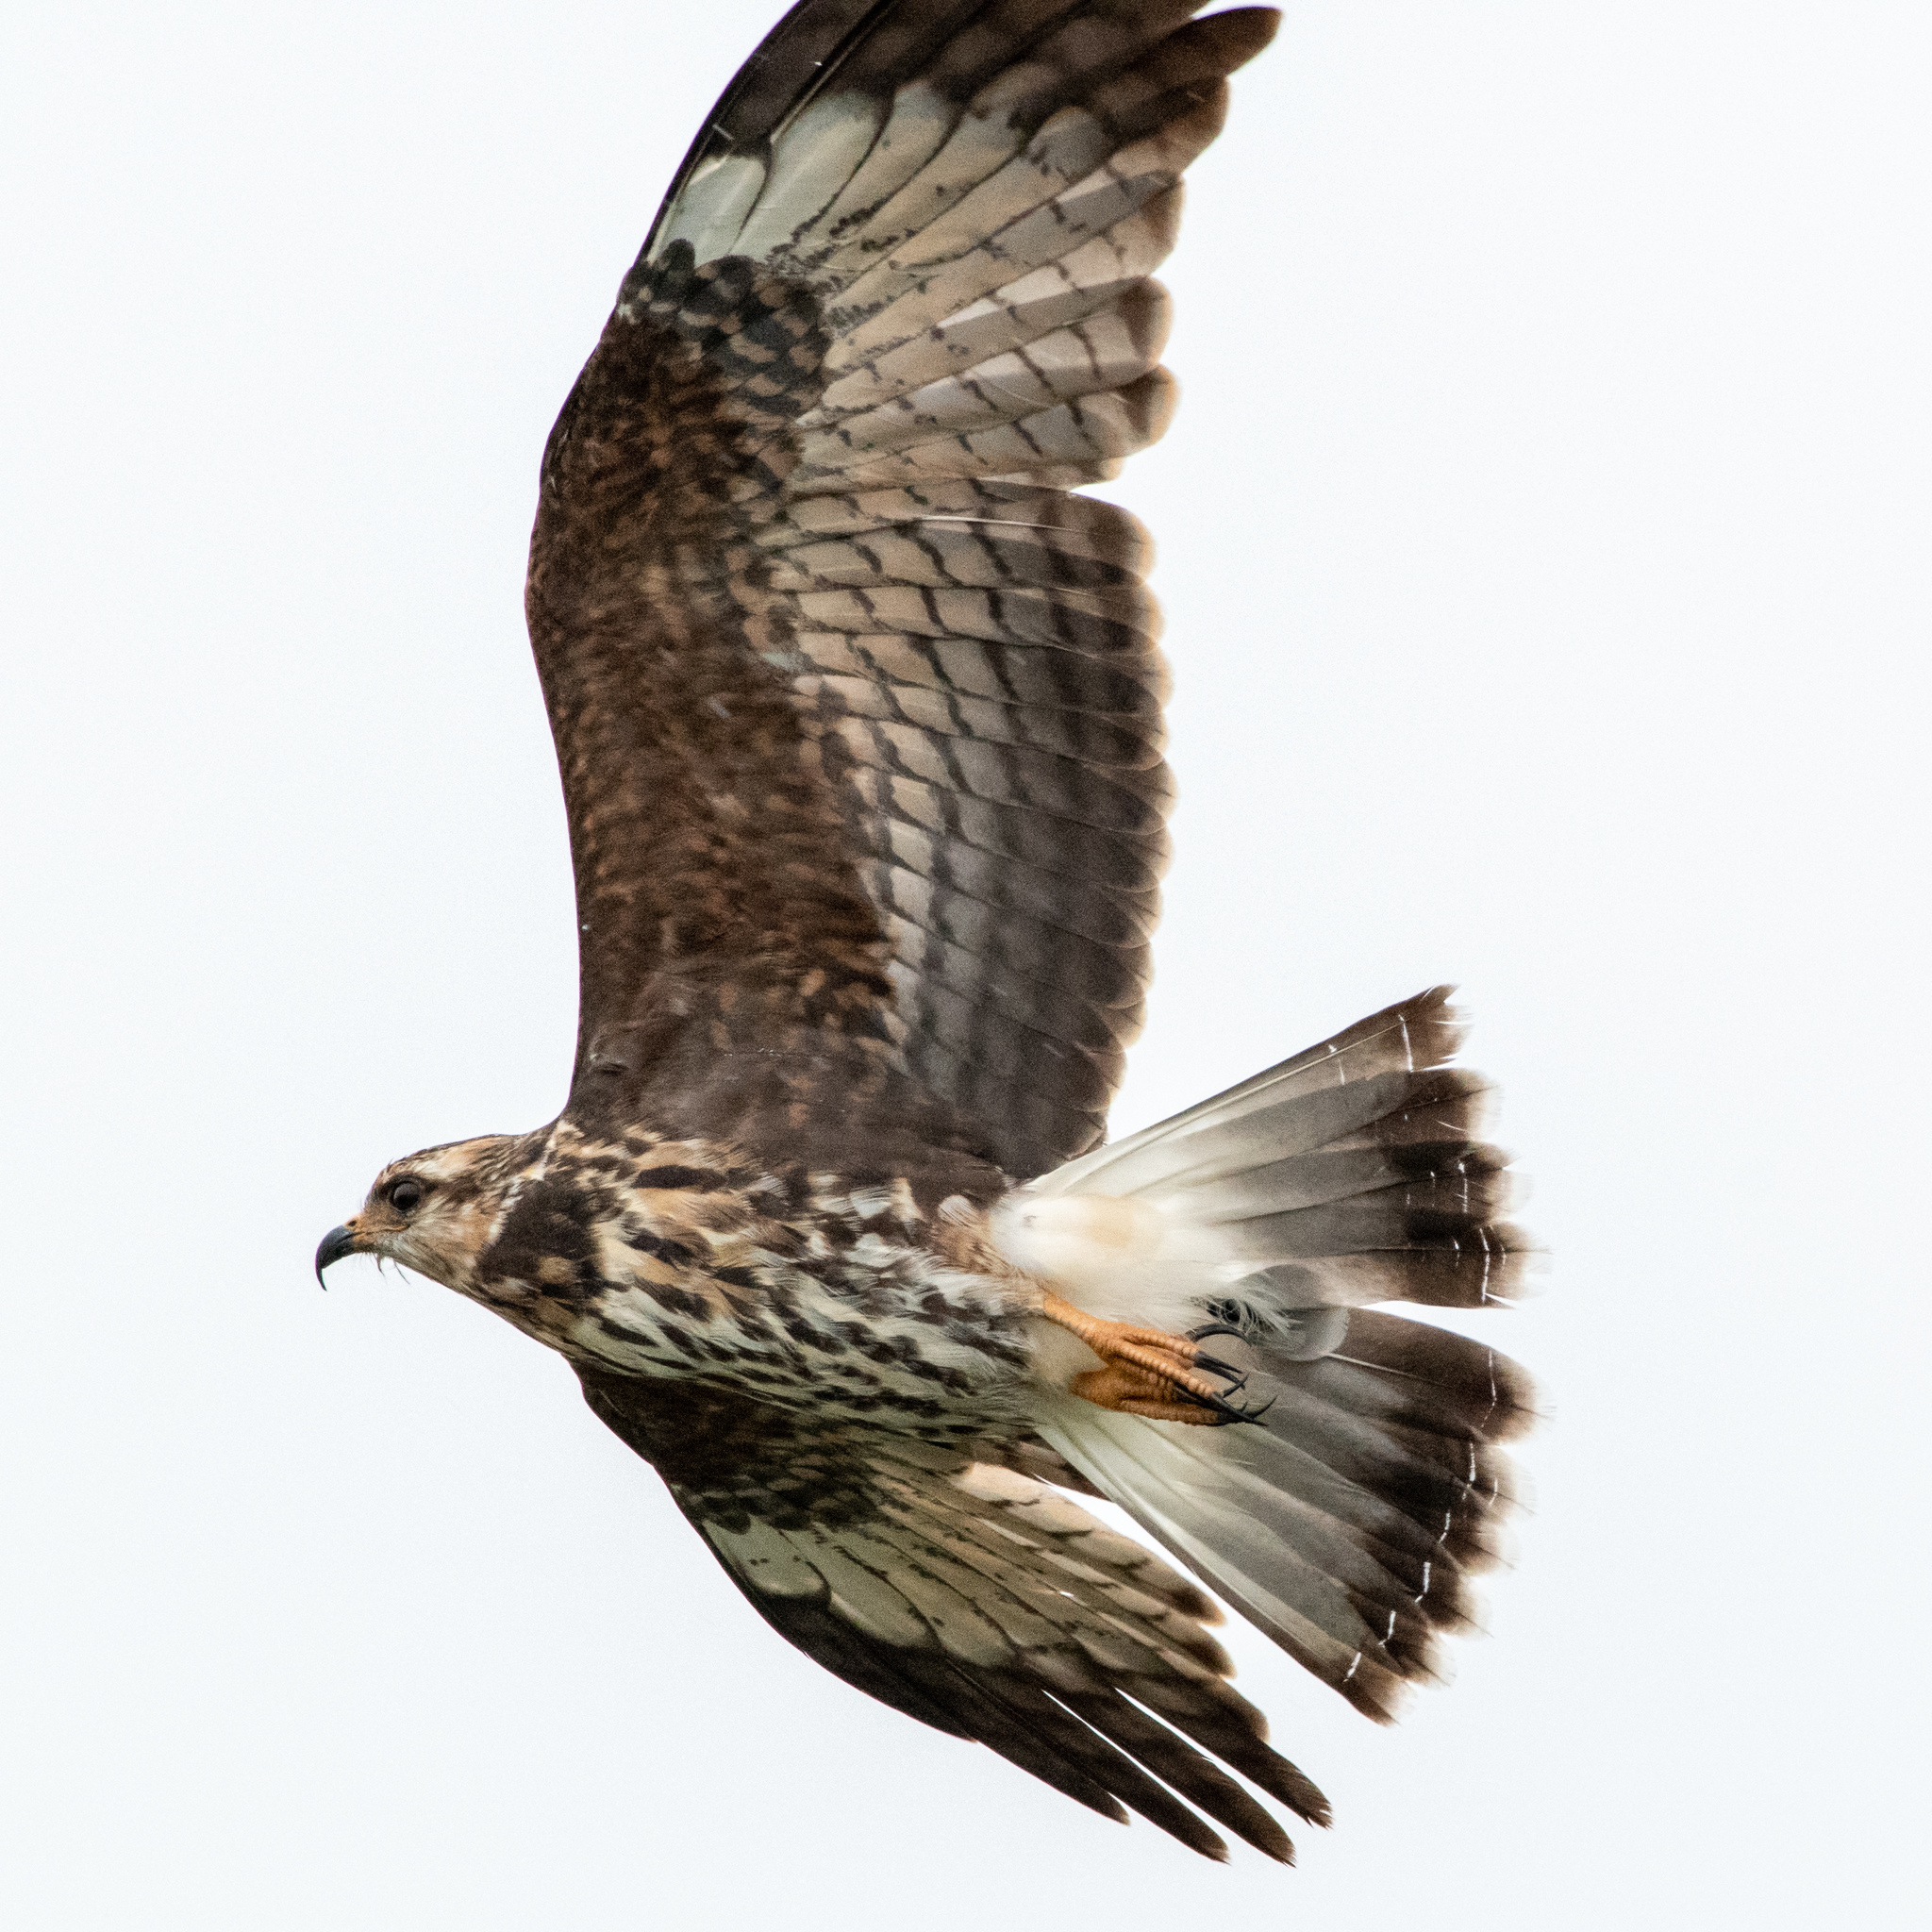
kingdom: Animalia
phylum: Chordata
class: Aves
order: Accipitriformes
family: Accipitridae
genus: Rostrhamus
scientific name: Rostrhamus sociabilis
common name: Snail kite
